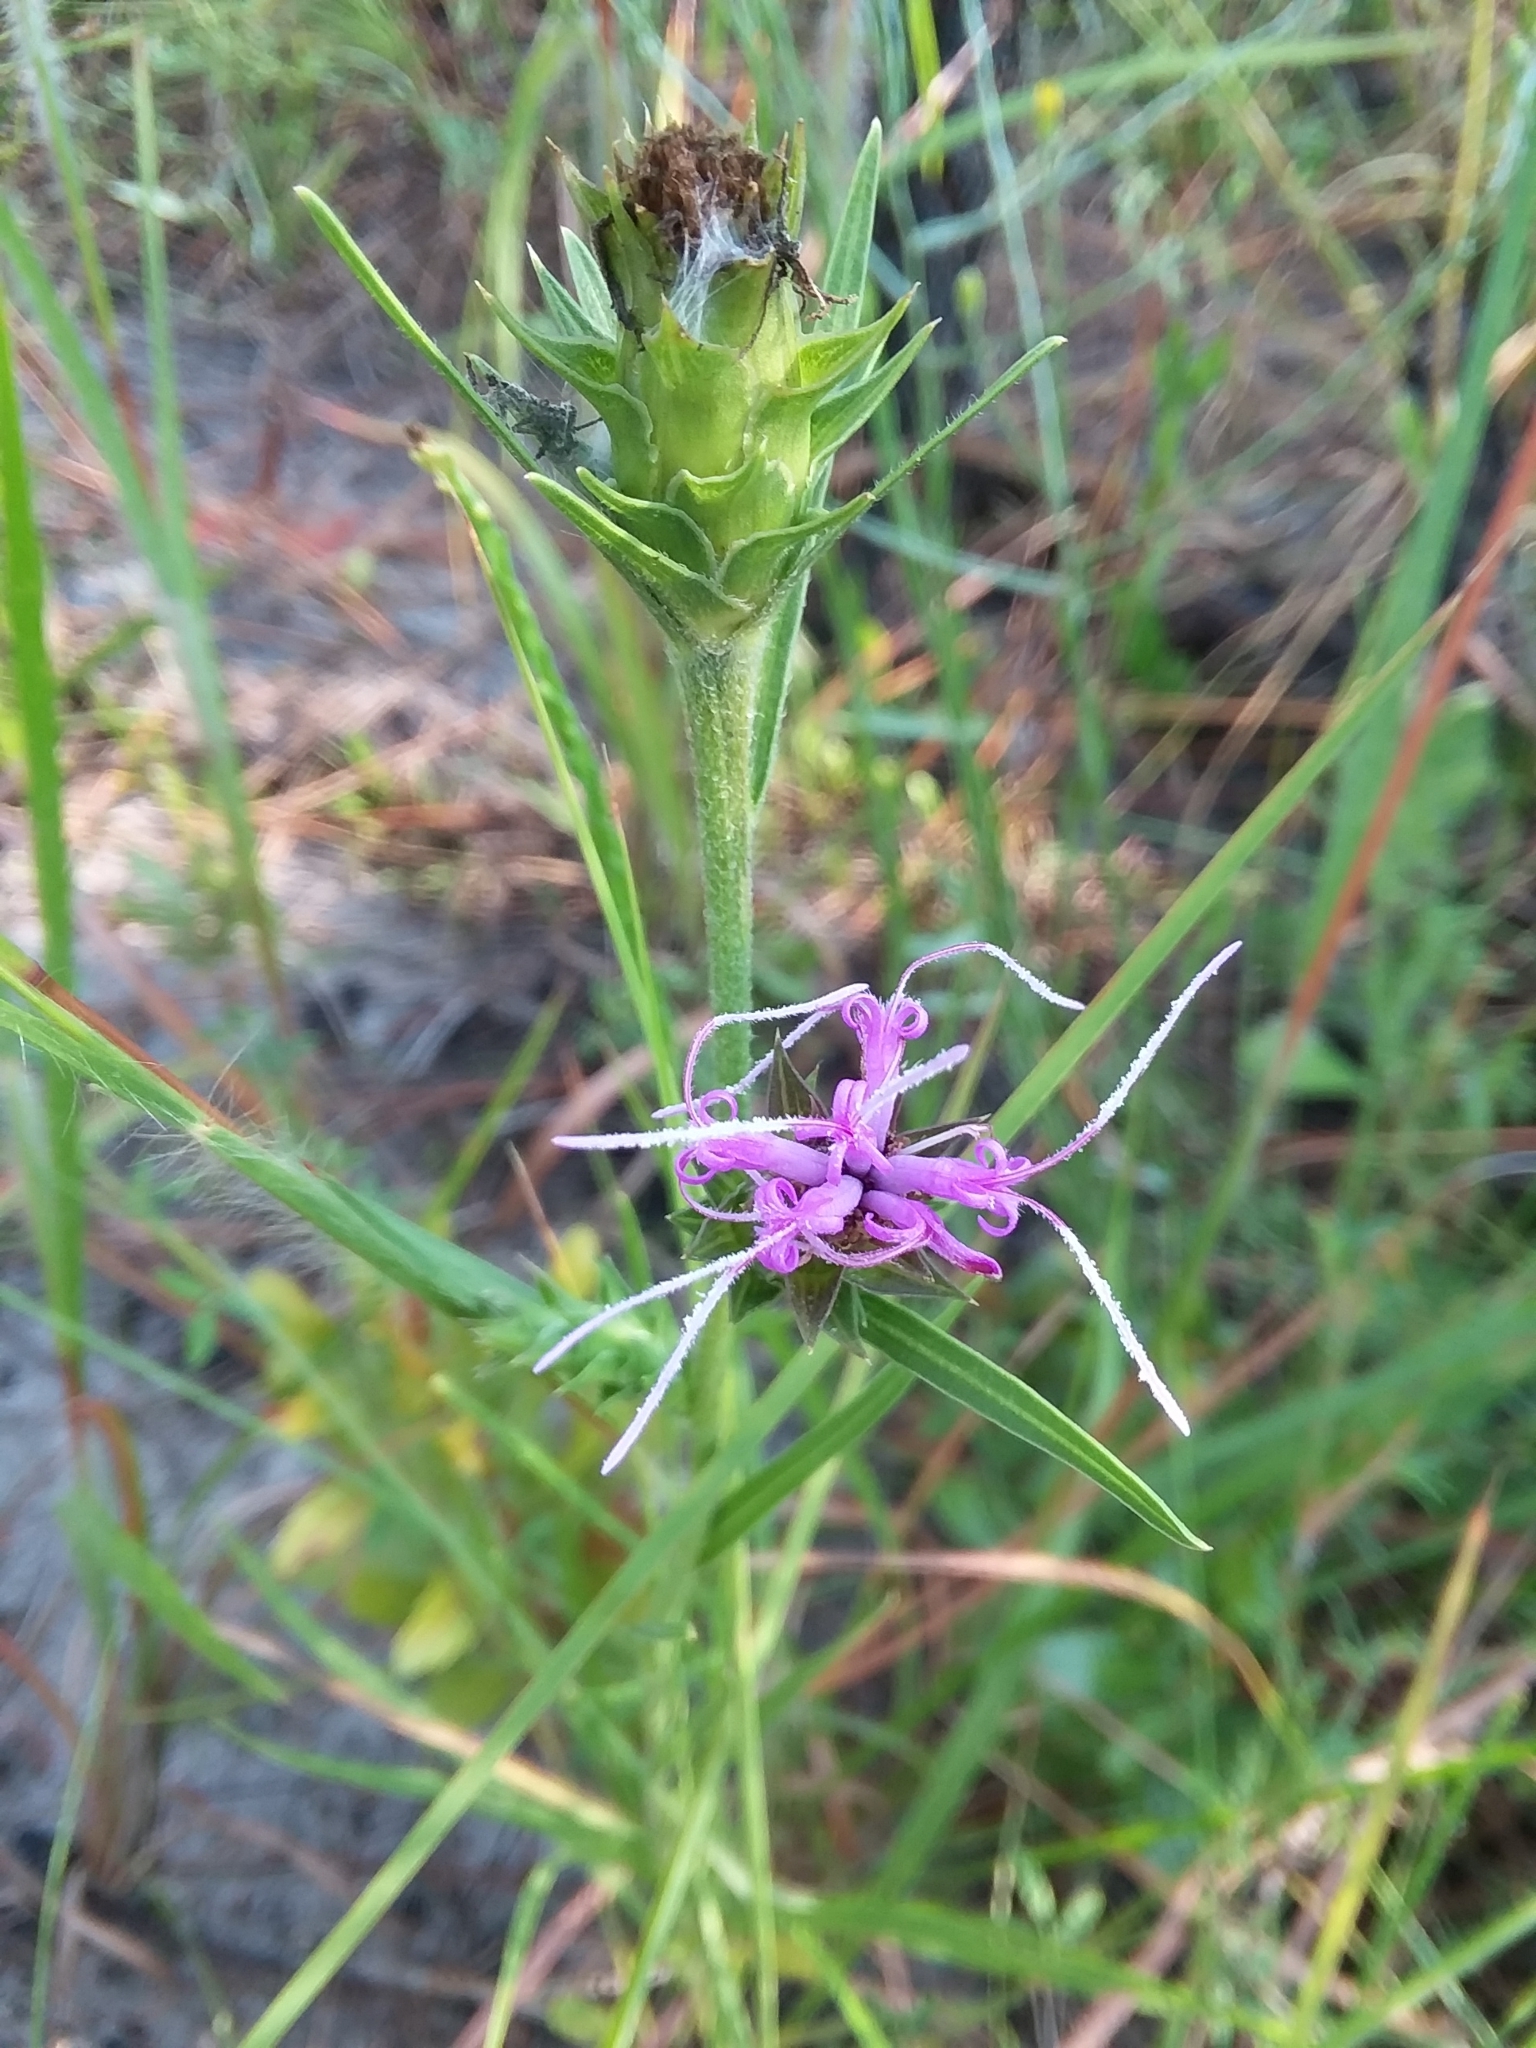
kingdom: Plantae
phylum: Tracheophyta
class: Magnoliopsida
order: Asterales
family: Asteraceae
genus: Liatris
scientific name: Liatris squarrosa
